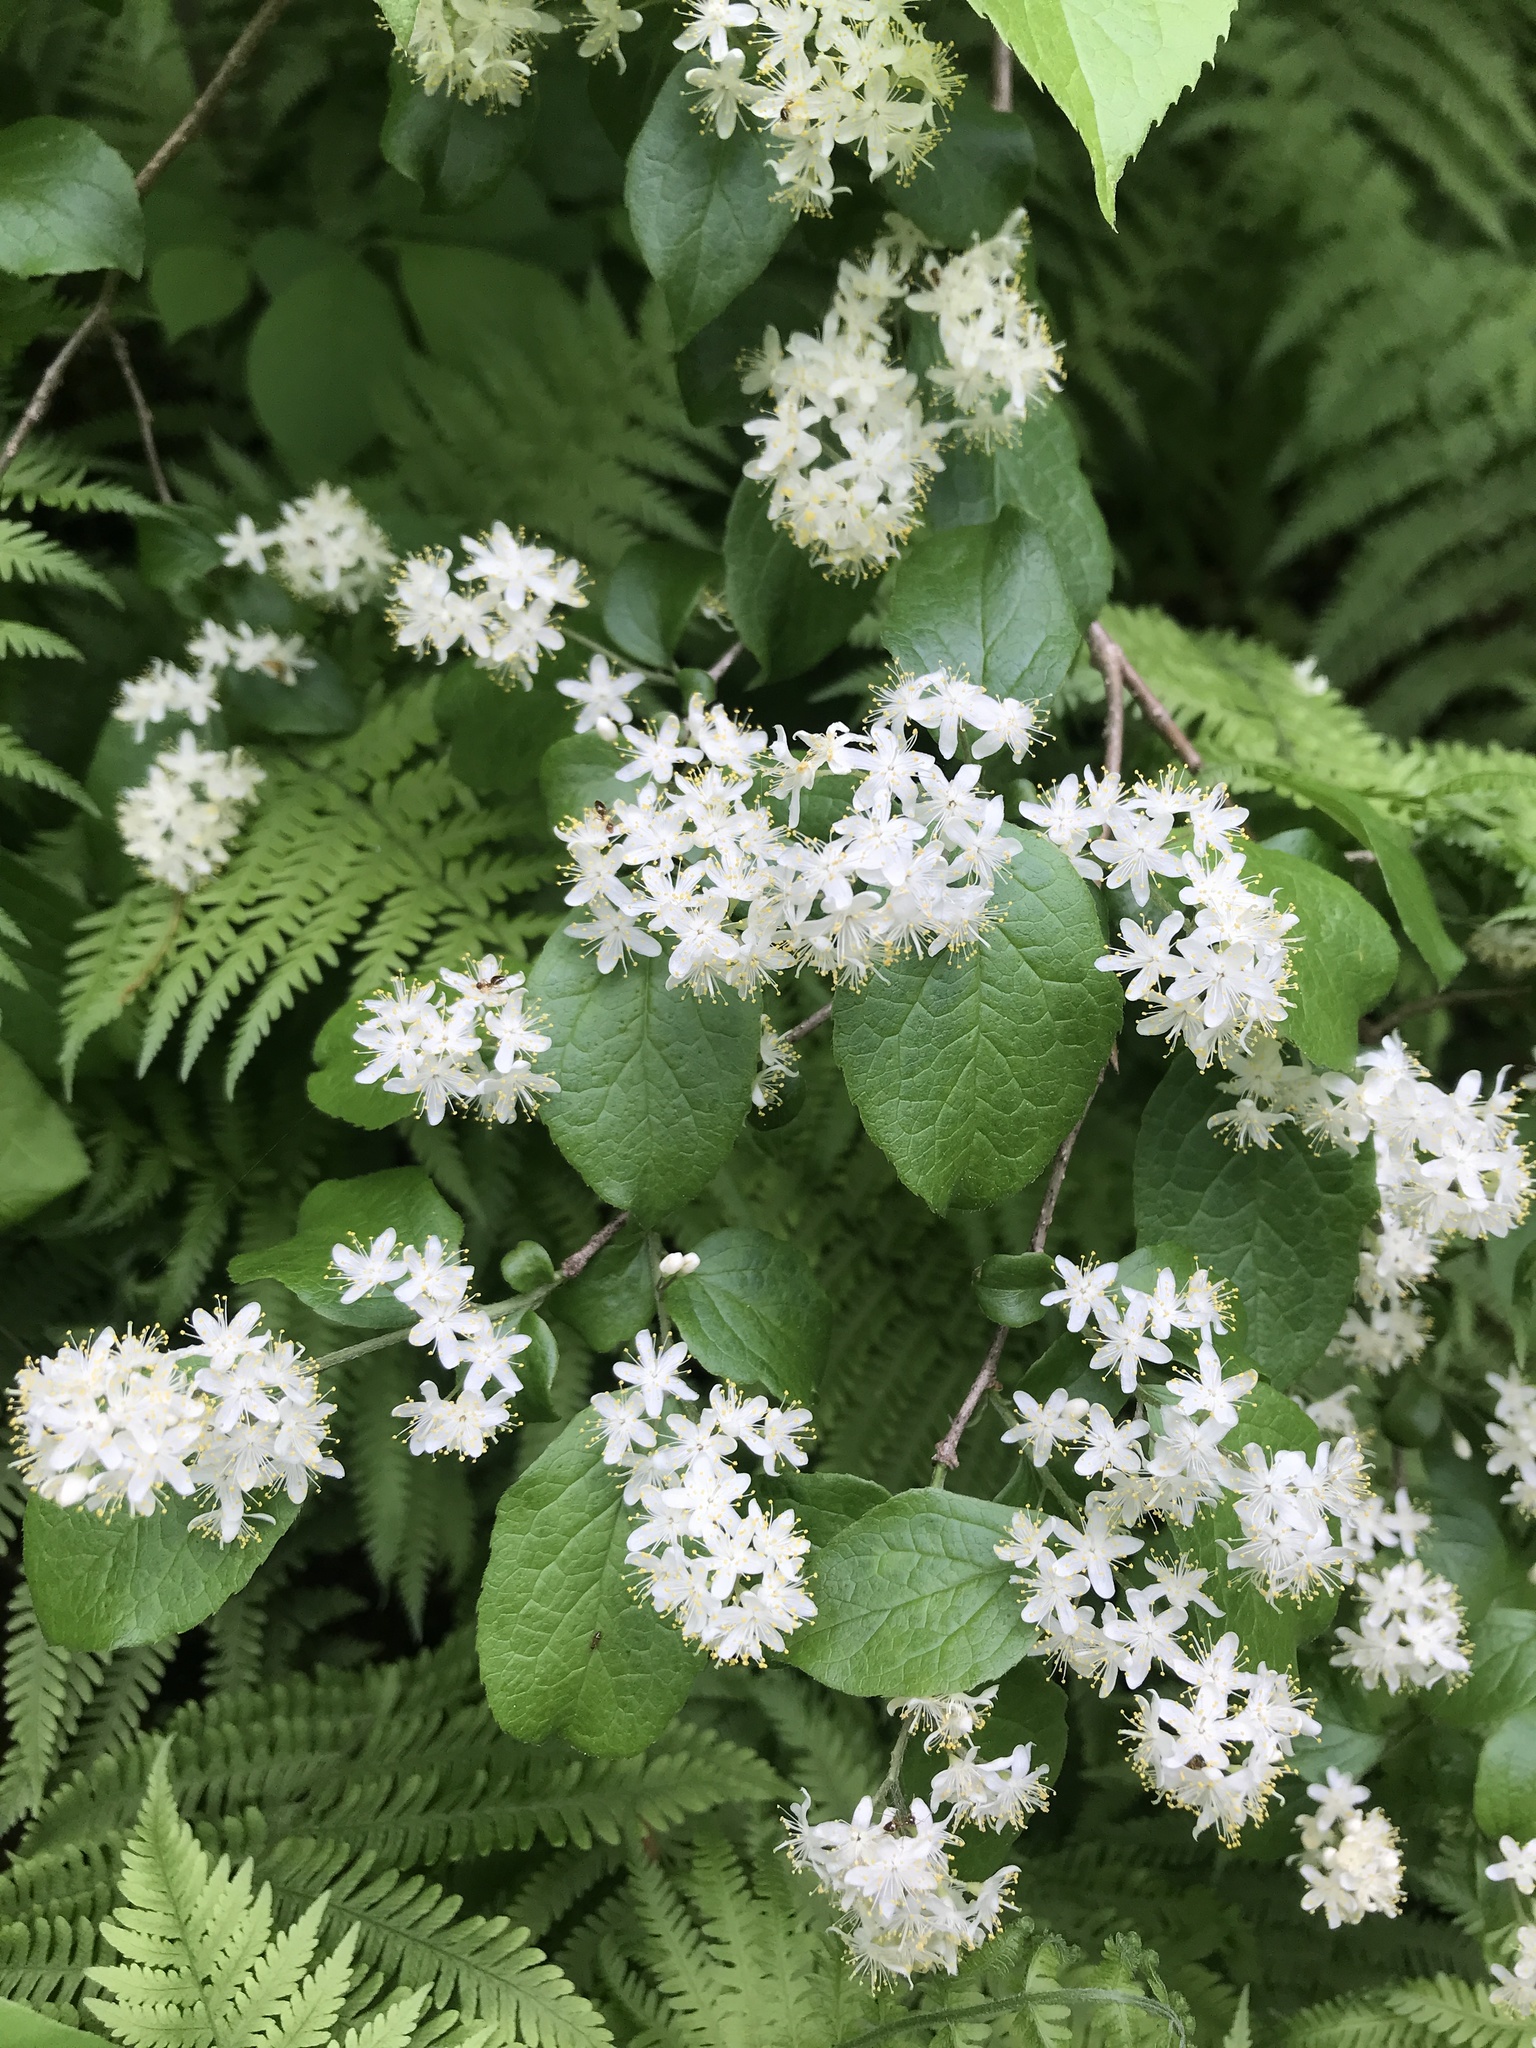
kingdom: Plantae
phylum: Tracheophyta
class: Magnoliopsida
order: Ericales
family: Symplocaceae
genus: Symplocos
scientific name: Symplocos paniculata
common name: Sapphire-berry
